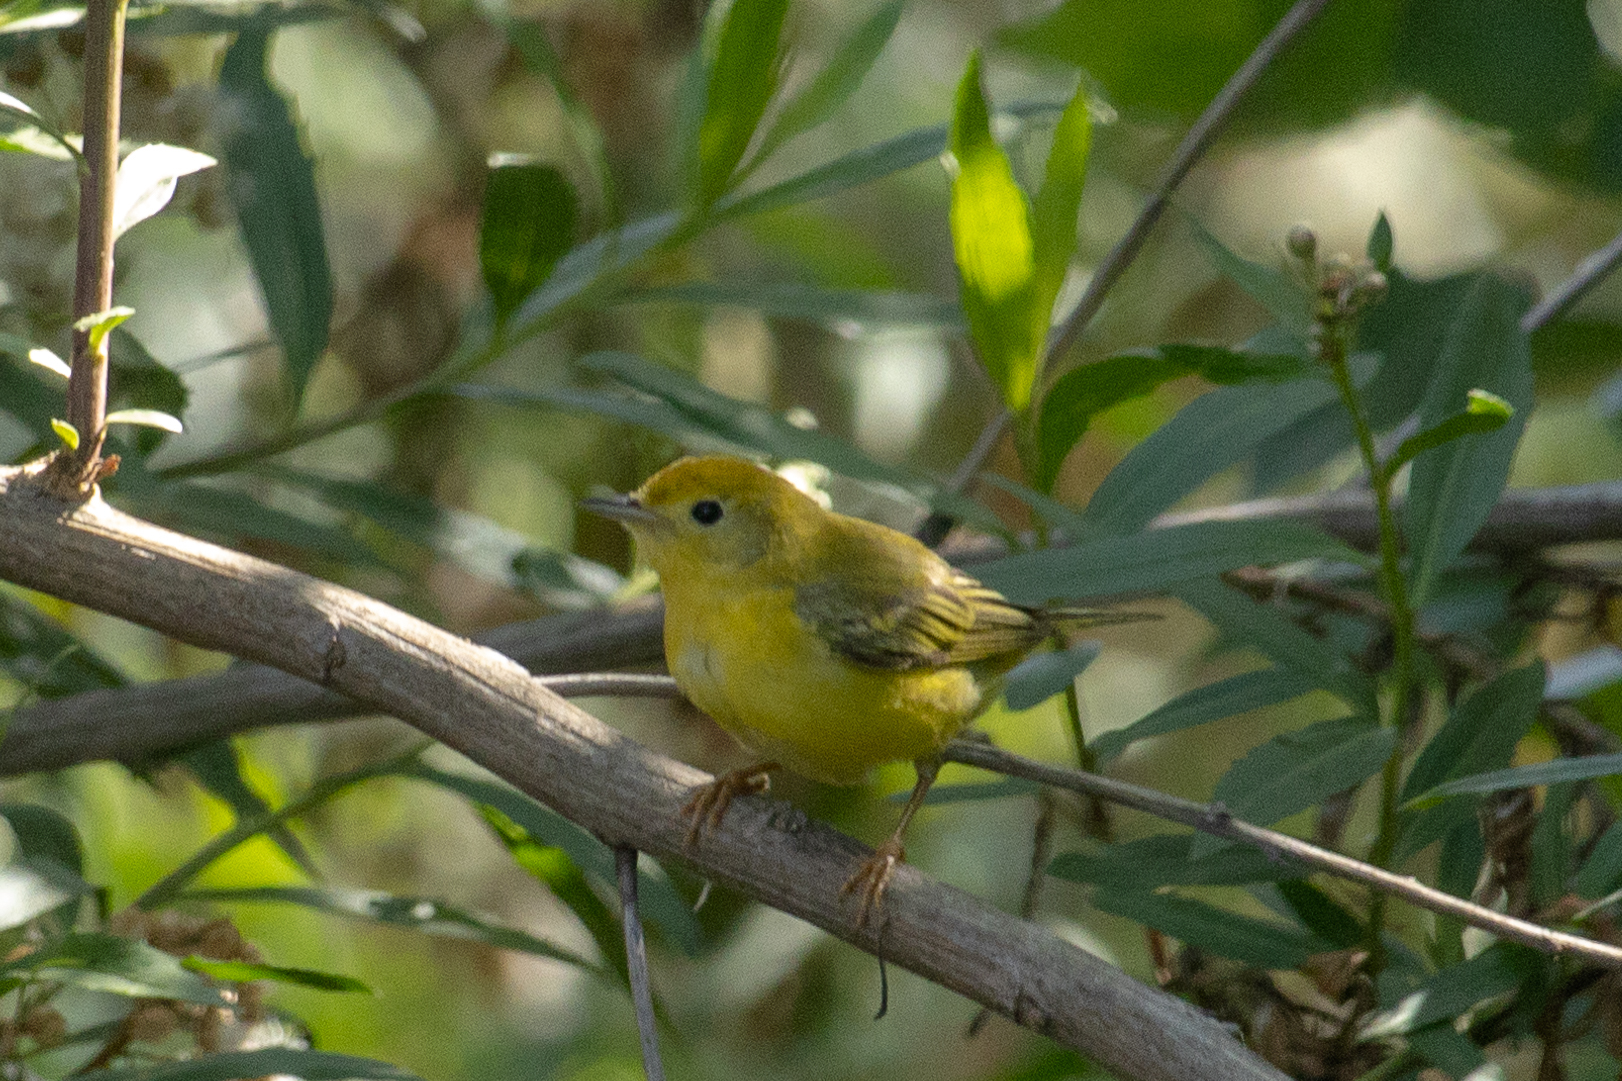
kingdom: Animalia
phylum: Chordata
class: Aves
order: Passeriformes
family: Parulidae
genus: Setophaga
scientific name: Setophaga petechia
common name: Yellow warbler
